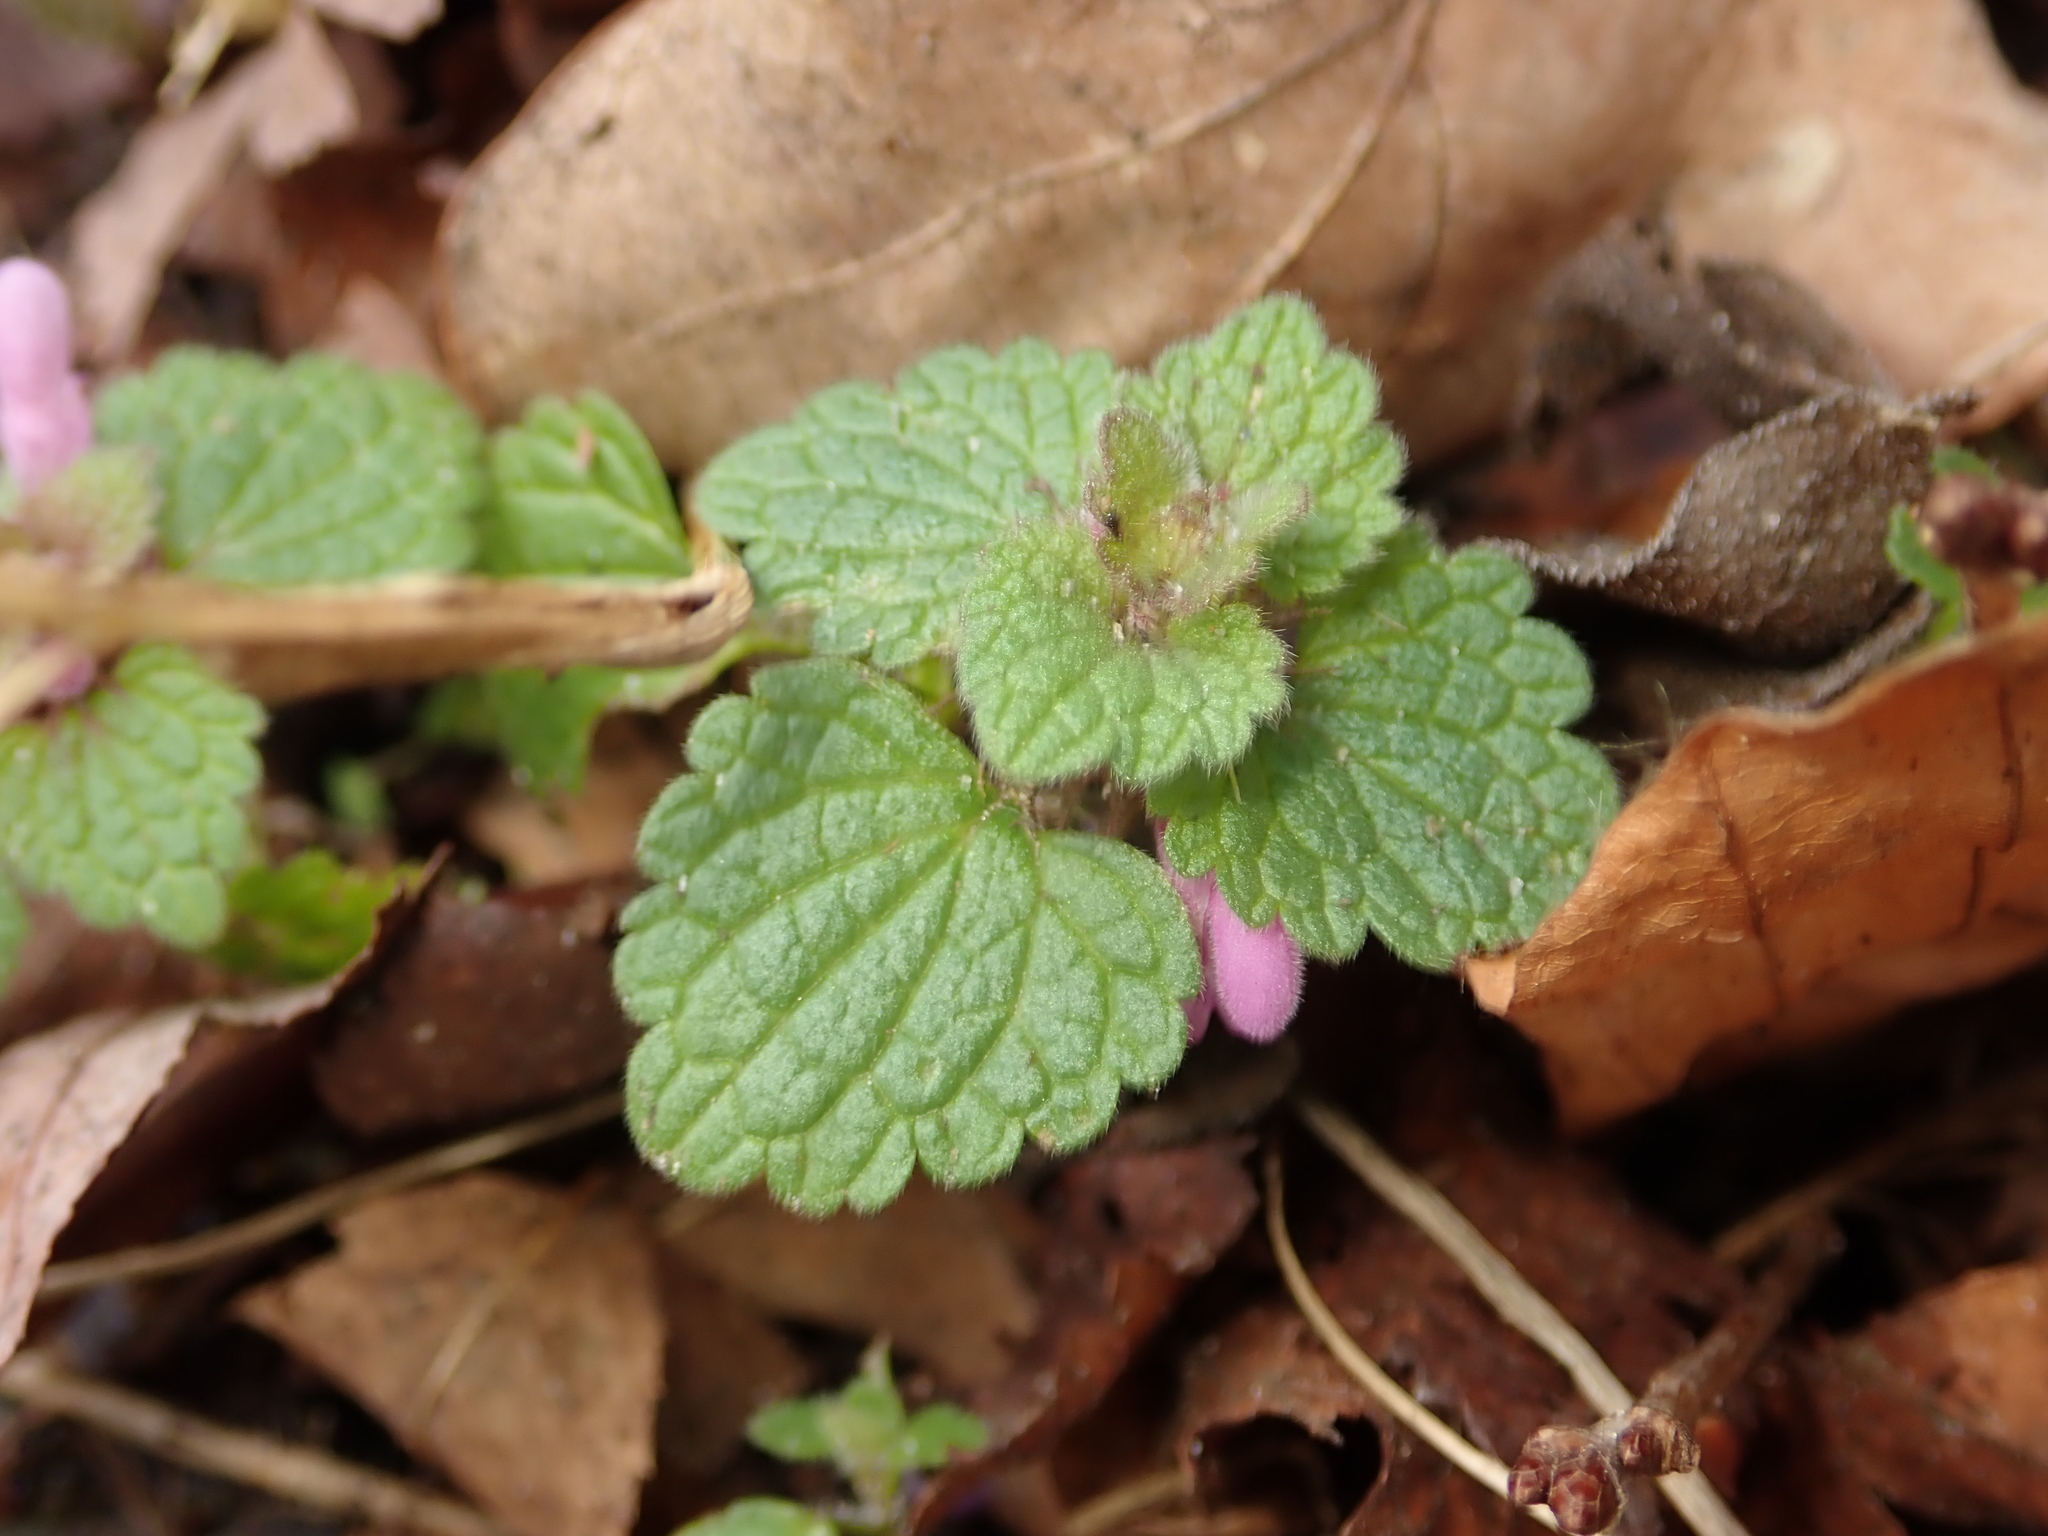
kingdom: Plantae
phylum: Tracheophyta
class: Magnoliopsida
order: Lamiales
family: Lamiaceae
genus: Lamium
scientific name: Lamium purpureum
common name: Red dead-nettle
